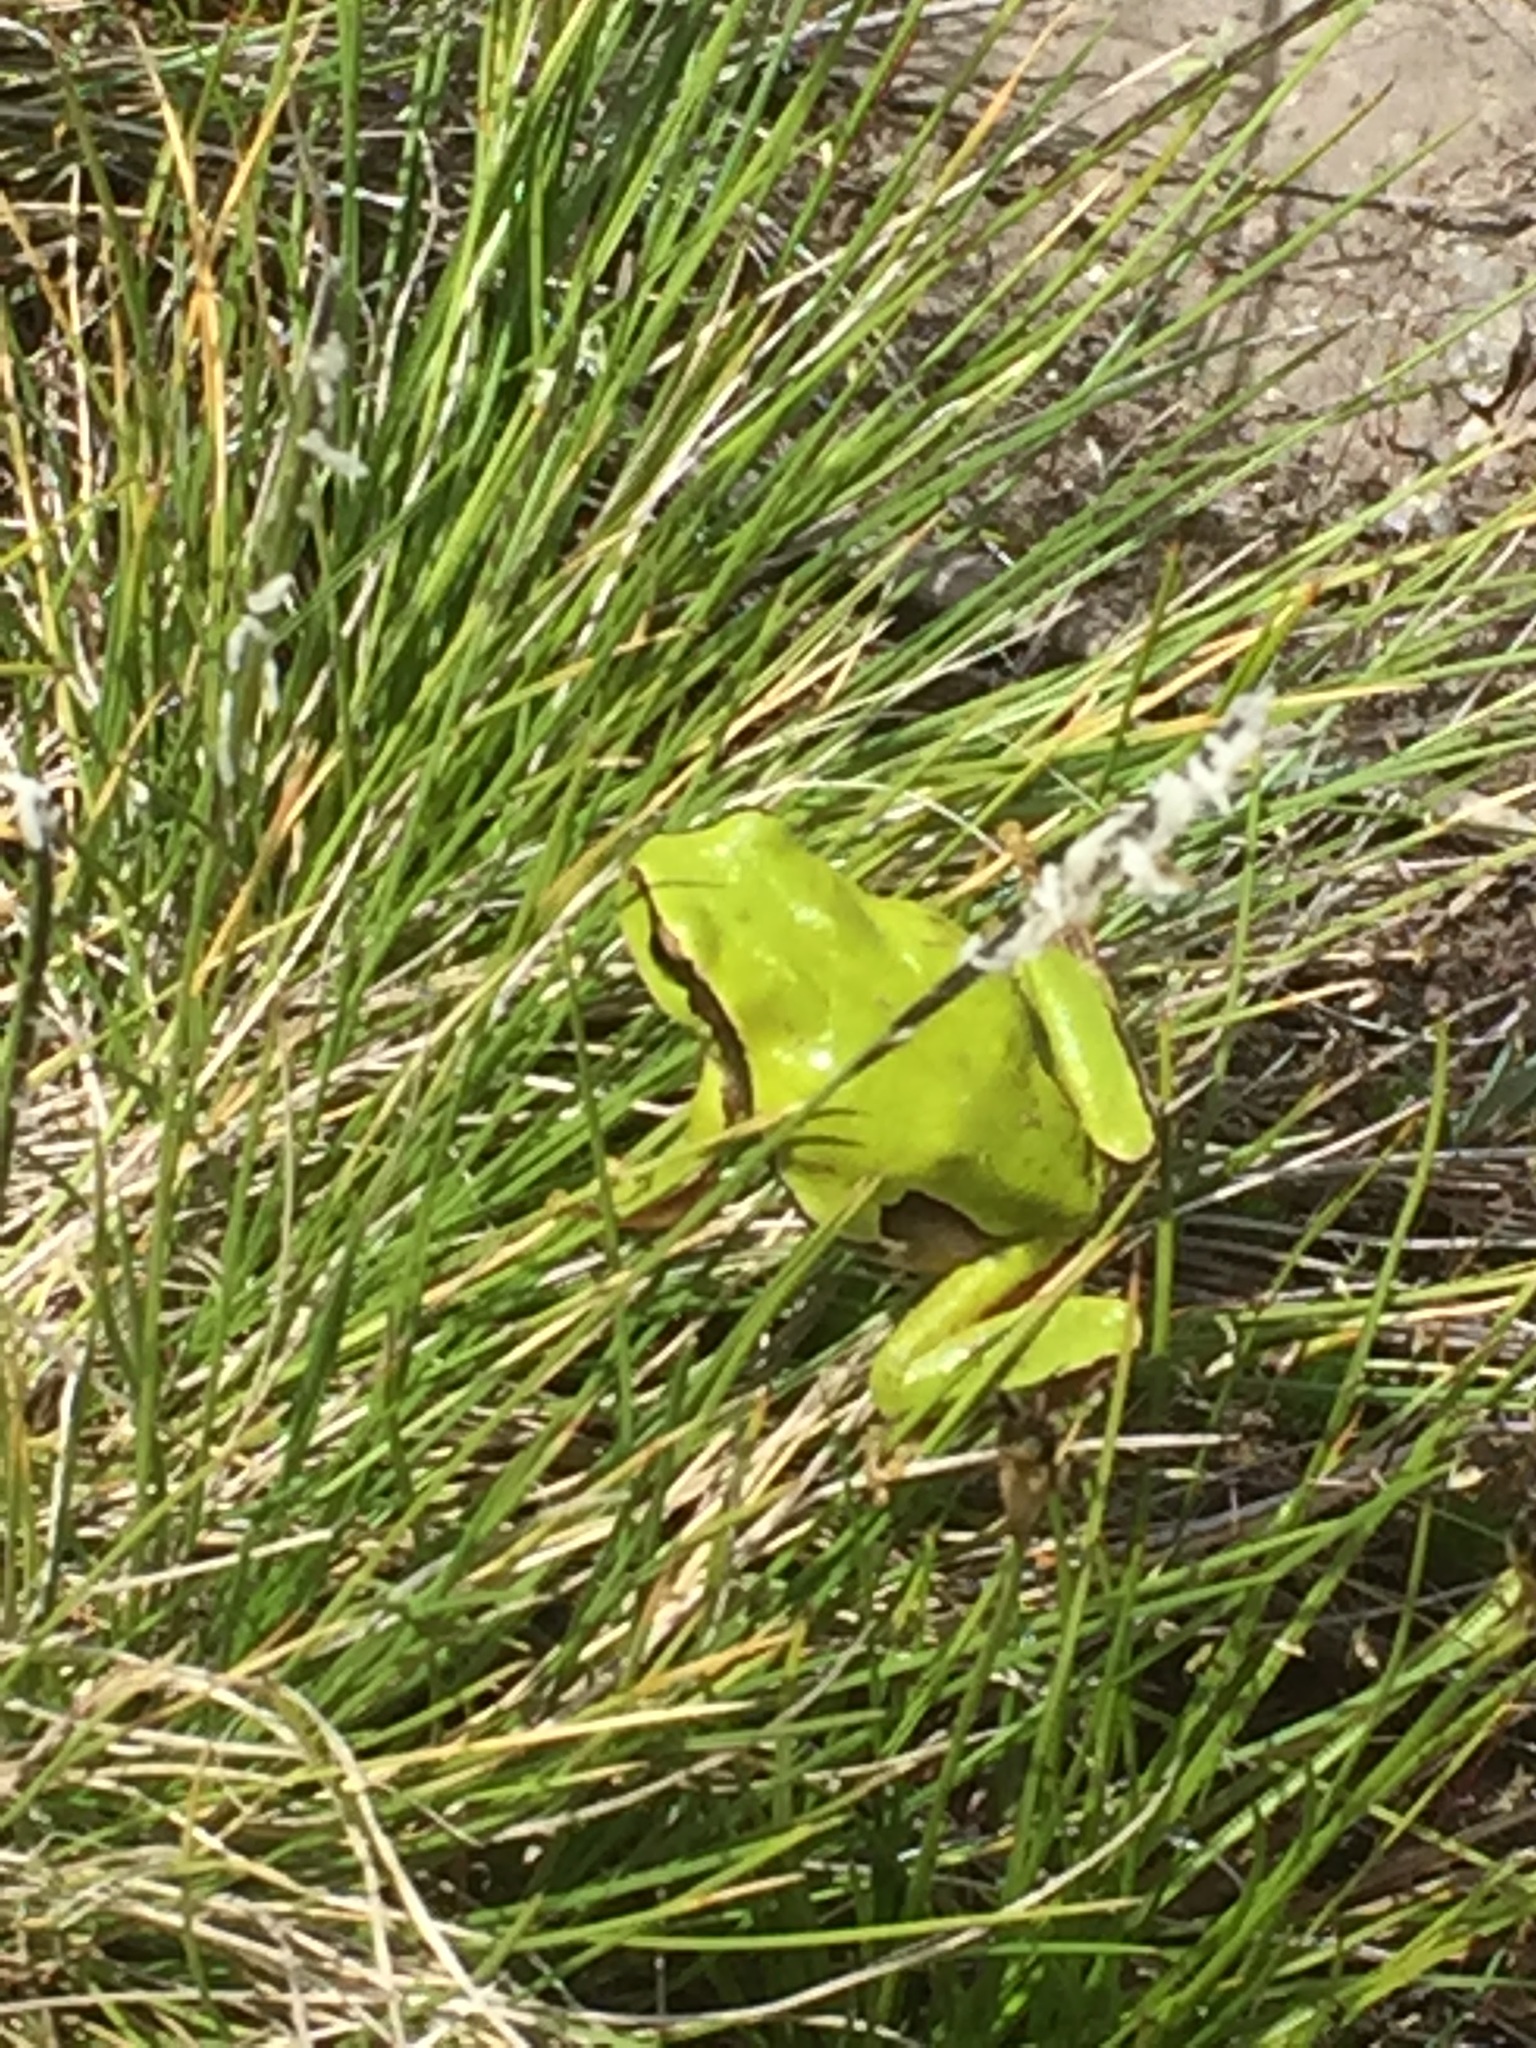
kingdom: Animalia
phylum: Chordata
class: Amphibia
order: Anura
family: Hylidae
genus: Hyla
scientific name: Hyla molleri
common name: Iberian tree frog
